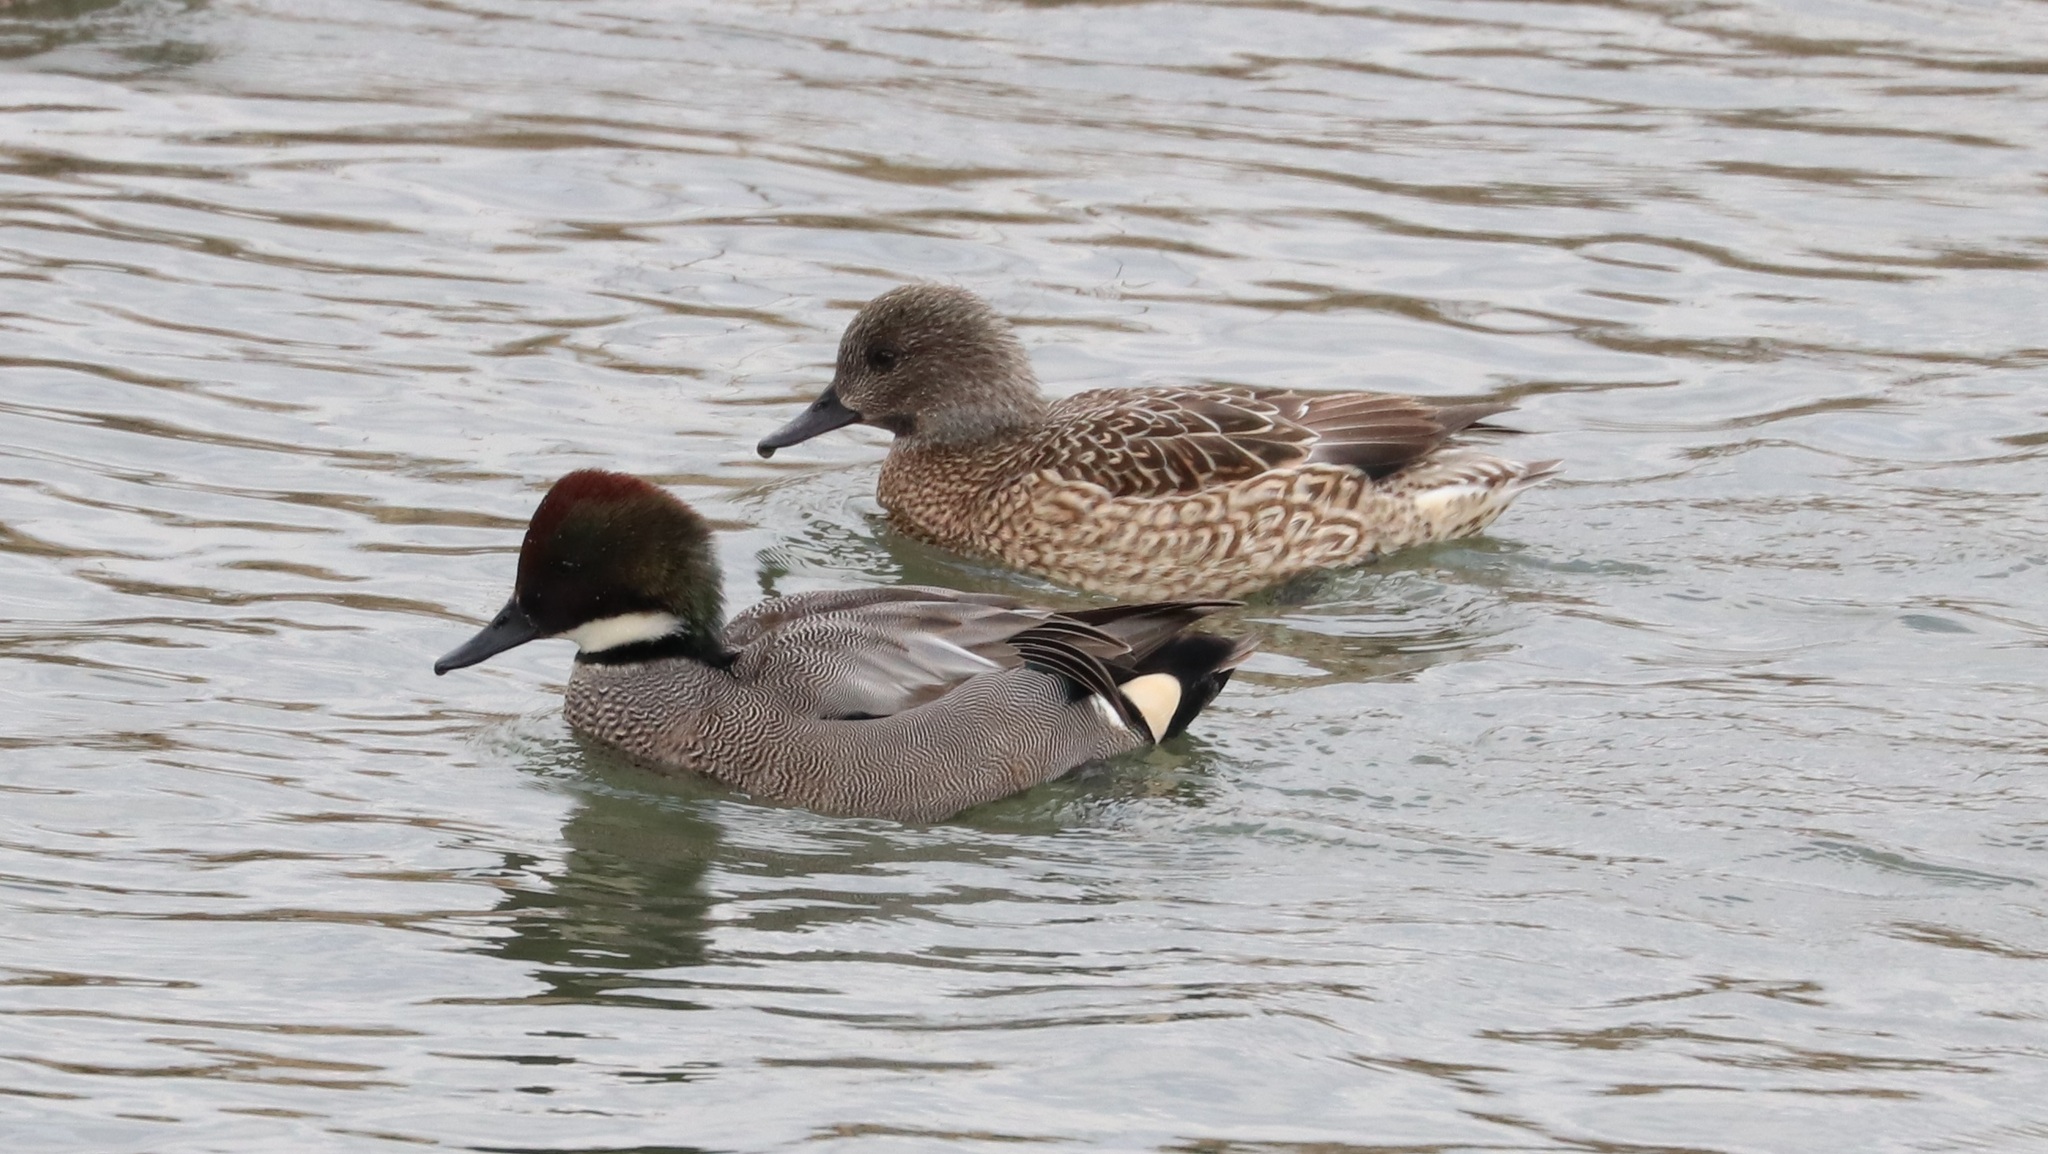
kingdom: Animalia
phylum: Chordata
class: Aves
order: Anseriformes
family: Anatidae
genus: Mareca
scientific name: Mareca falcata
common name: Falcated duck
